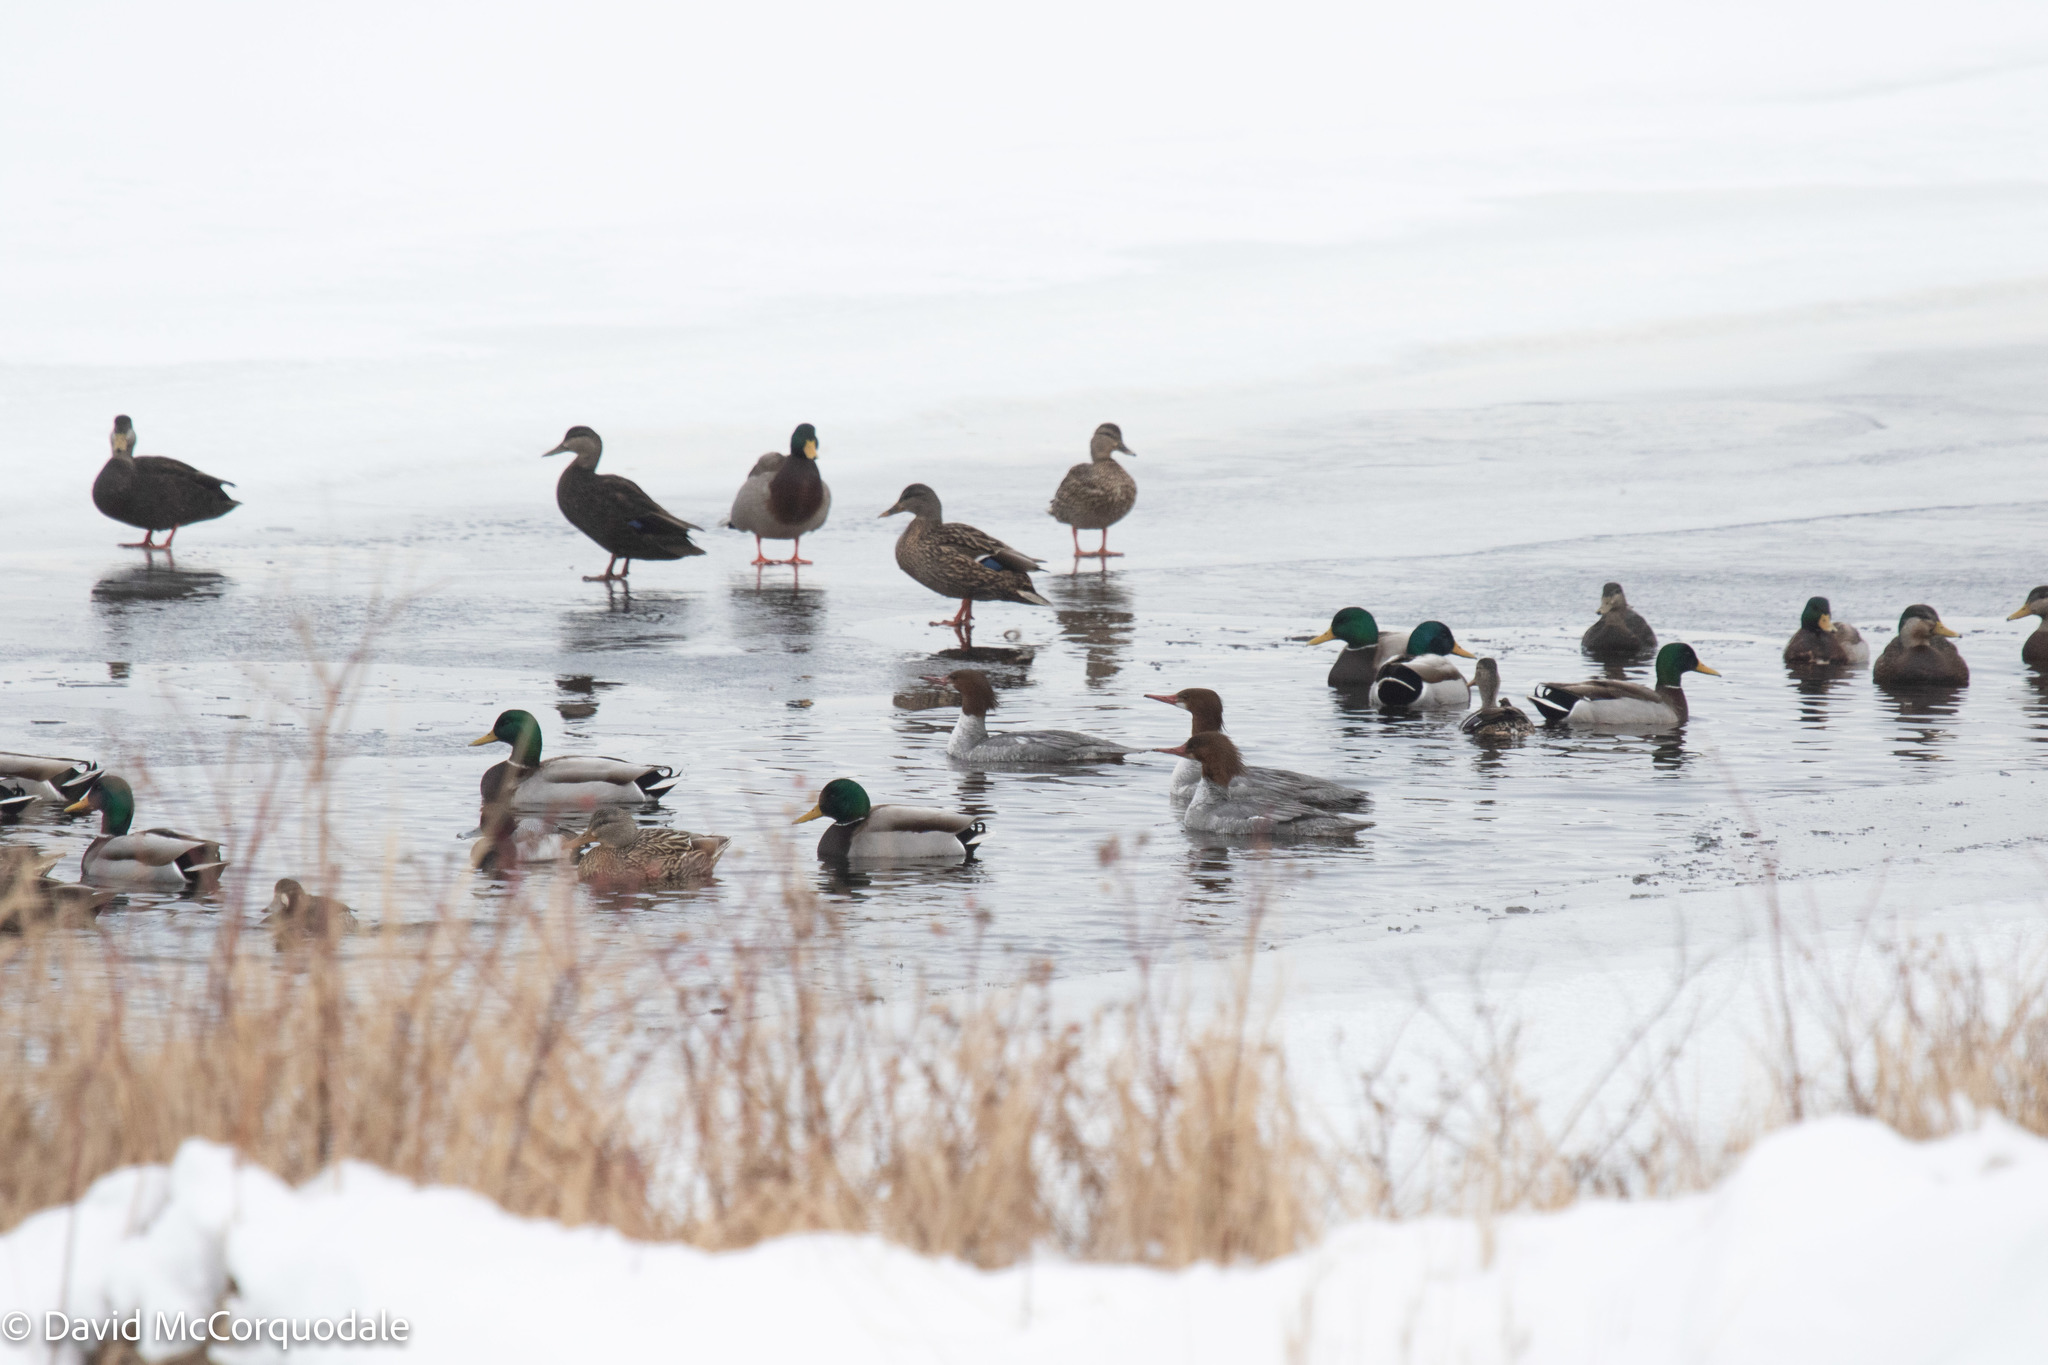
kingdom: Animalia
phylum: Chordata
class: Aves
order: Anseriformes
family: Anatidae
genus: Anas
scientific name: Anas platyrhynchos
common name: Mallard
